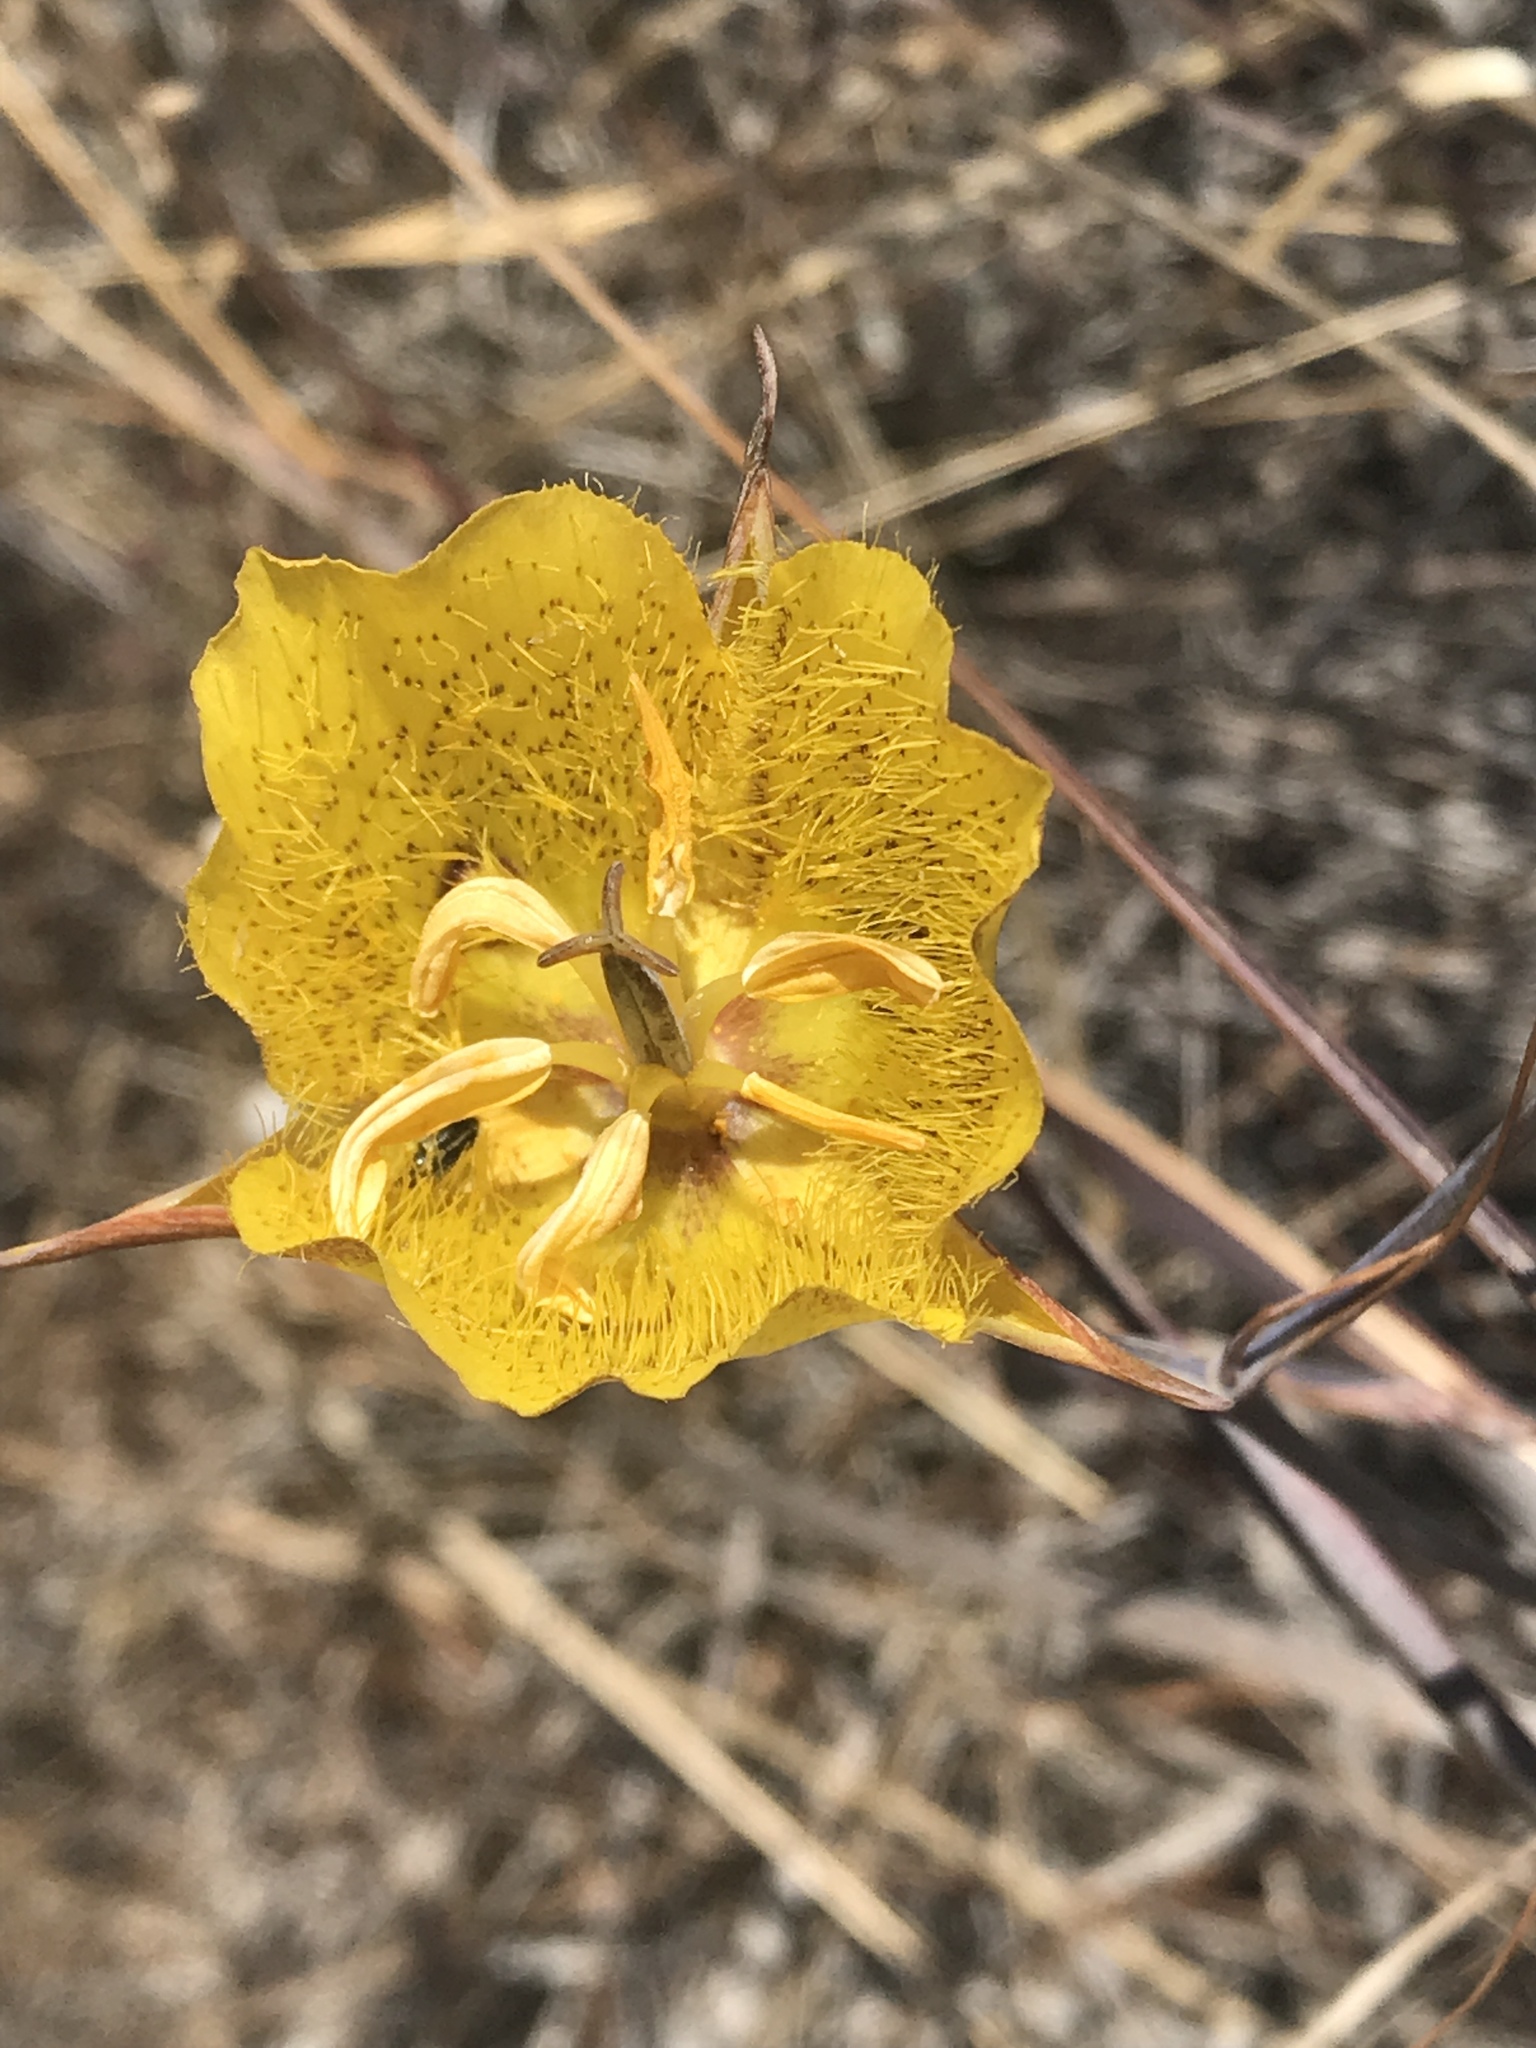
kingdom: Plantae
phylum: Tracheophyta
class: Liliopsida
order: Liliales
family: Liliaceae
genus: Calochortus
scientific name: Calochortus weedii
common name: Weed's mariposa-lily
